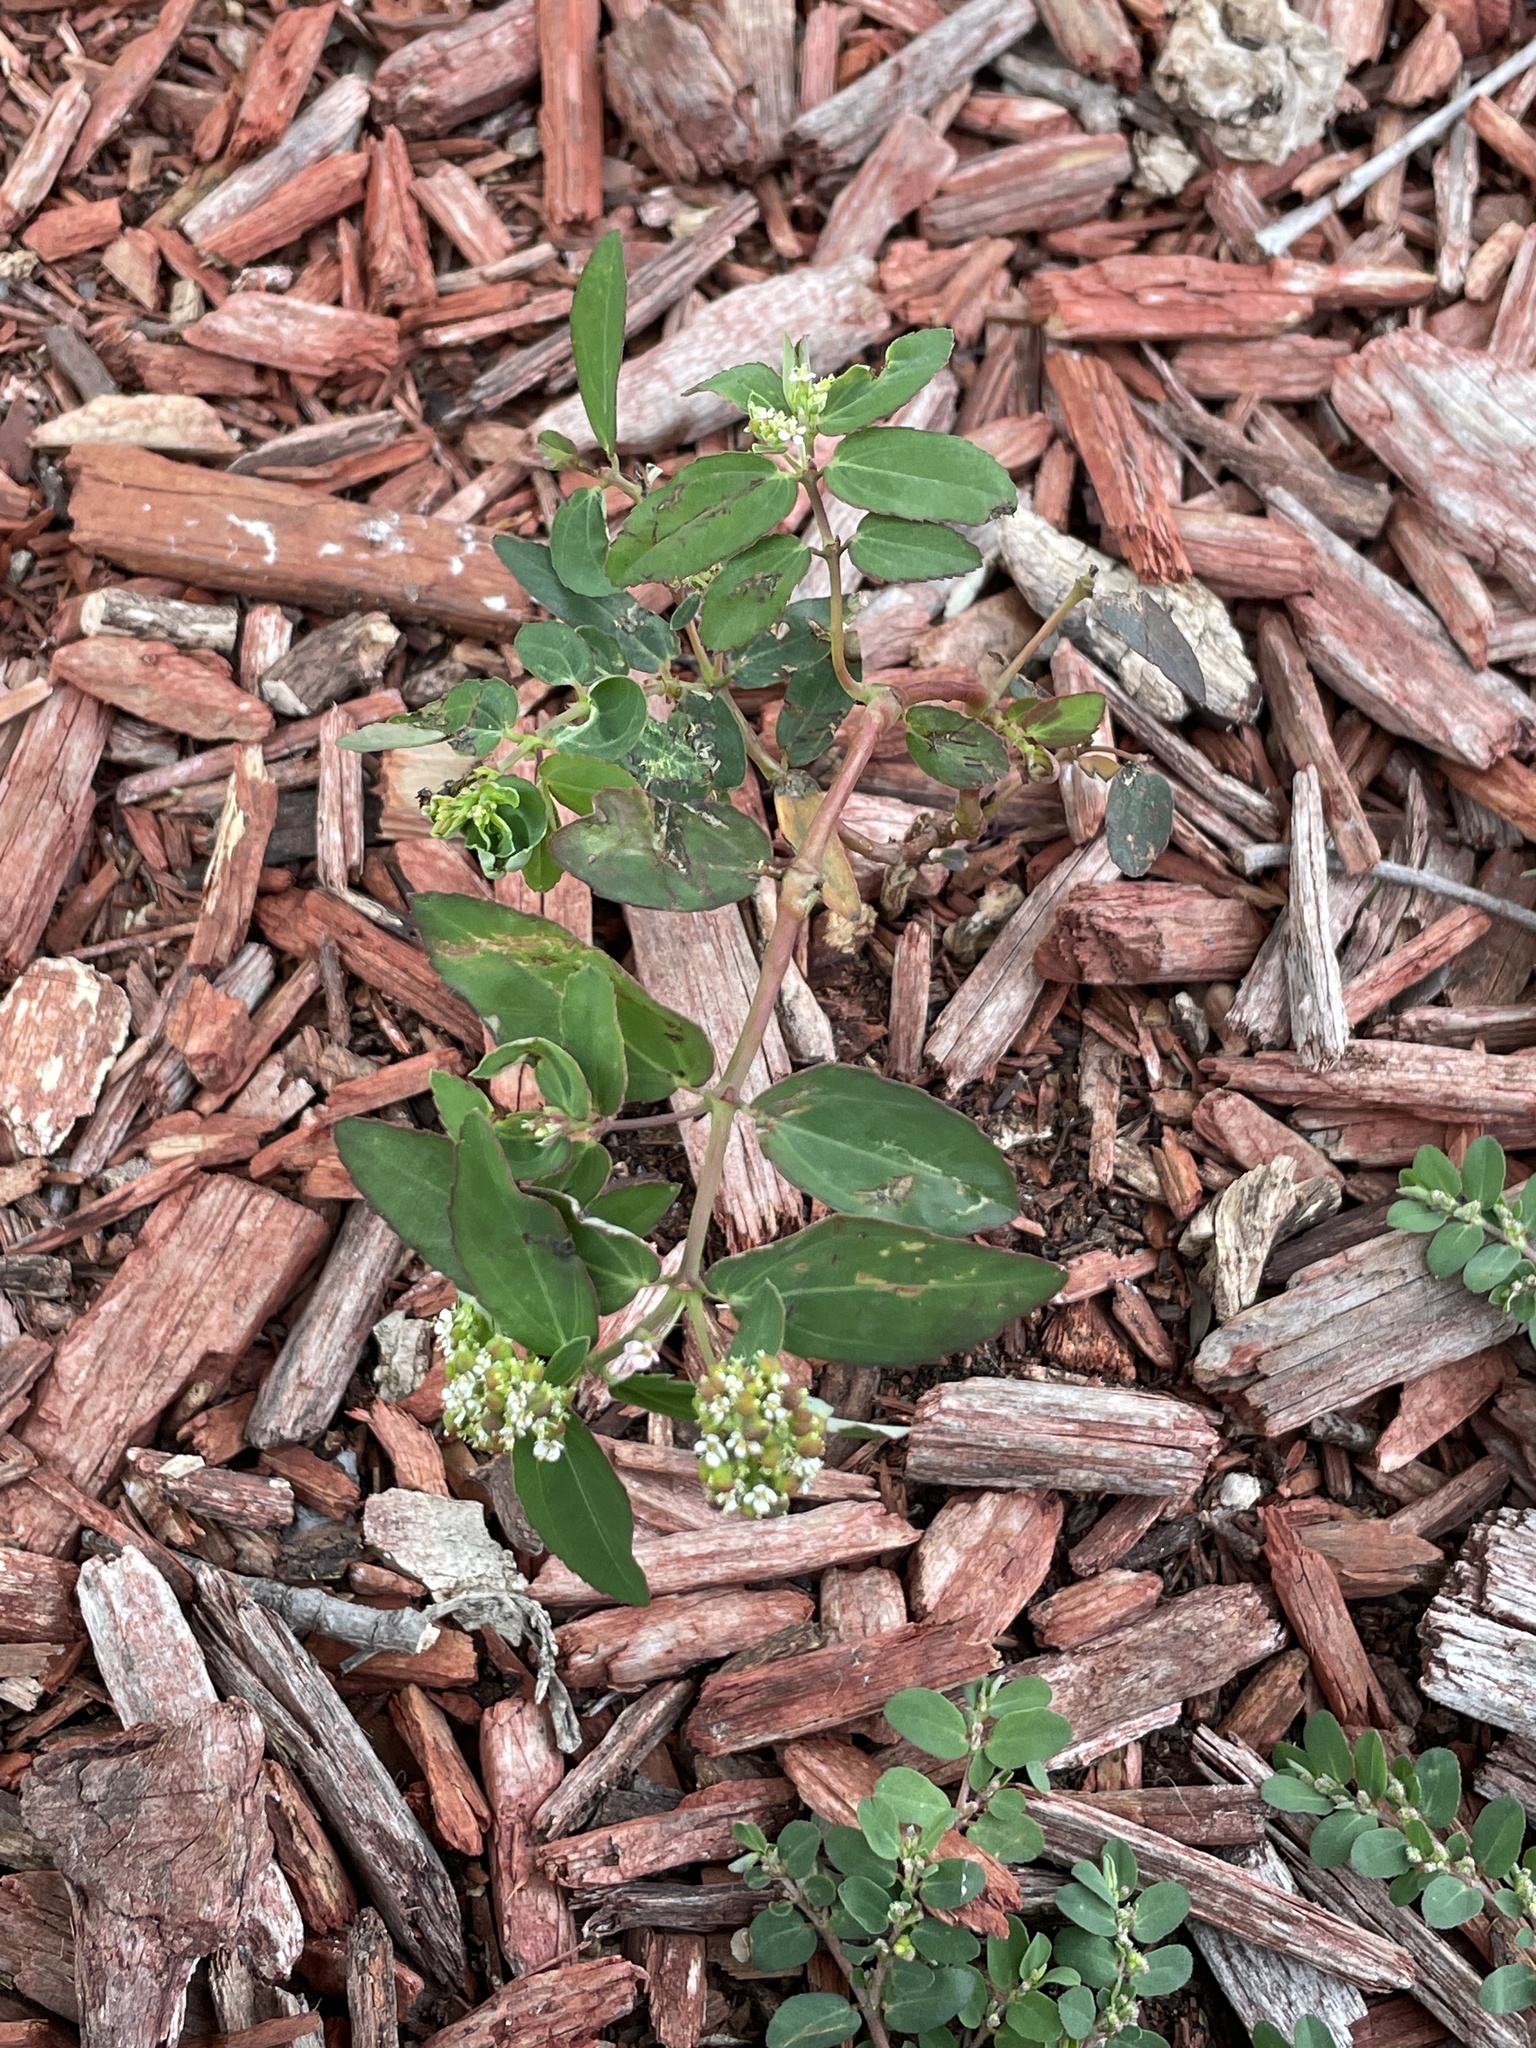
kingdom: Plantae
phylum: Tracheophyta
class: Magnoliopsida
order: Malpighiales
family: Euphorbiaceae
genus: Euphorbia
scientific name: Euphorbia hypericifolia
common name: Graceful sandmat
